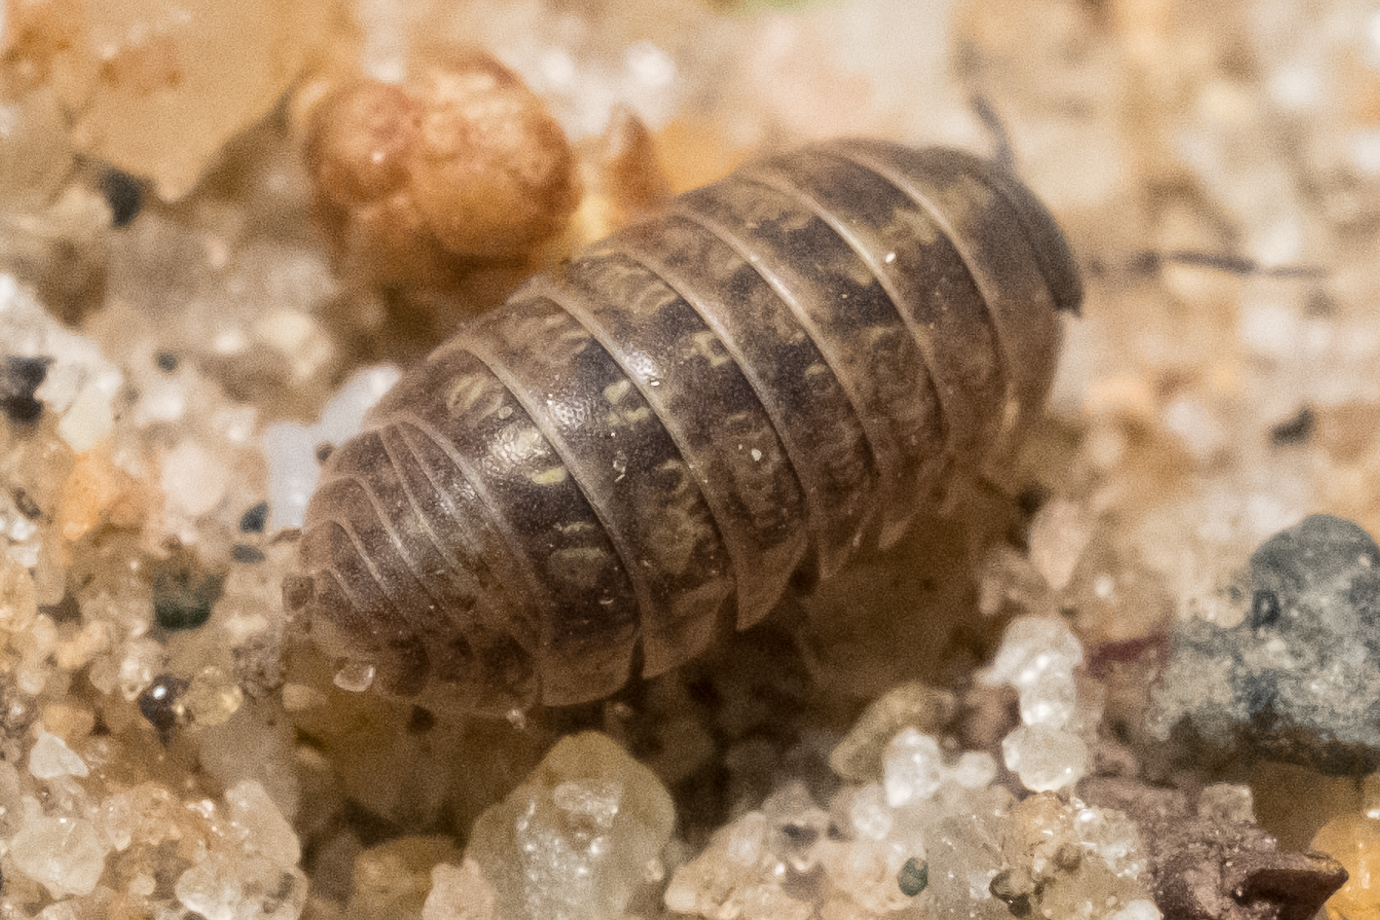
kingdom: Animalia
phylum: Arthropoda
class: Malacostraca
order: Isopoda
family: Armadillidiidae
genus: Armadillidium
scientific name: Armadillidium vulgare
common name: Common pill woodlouse
